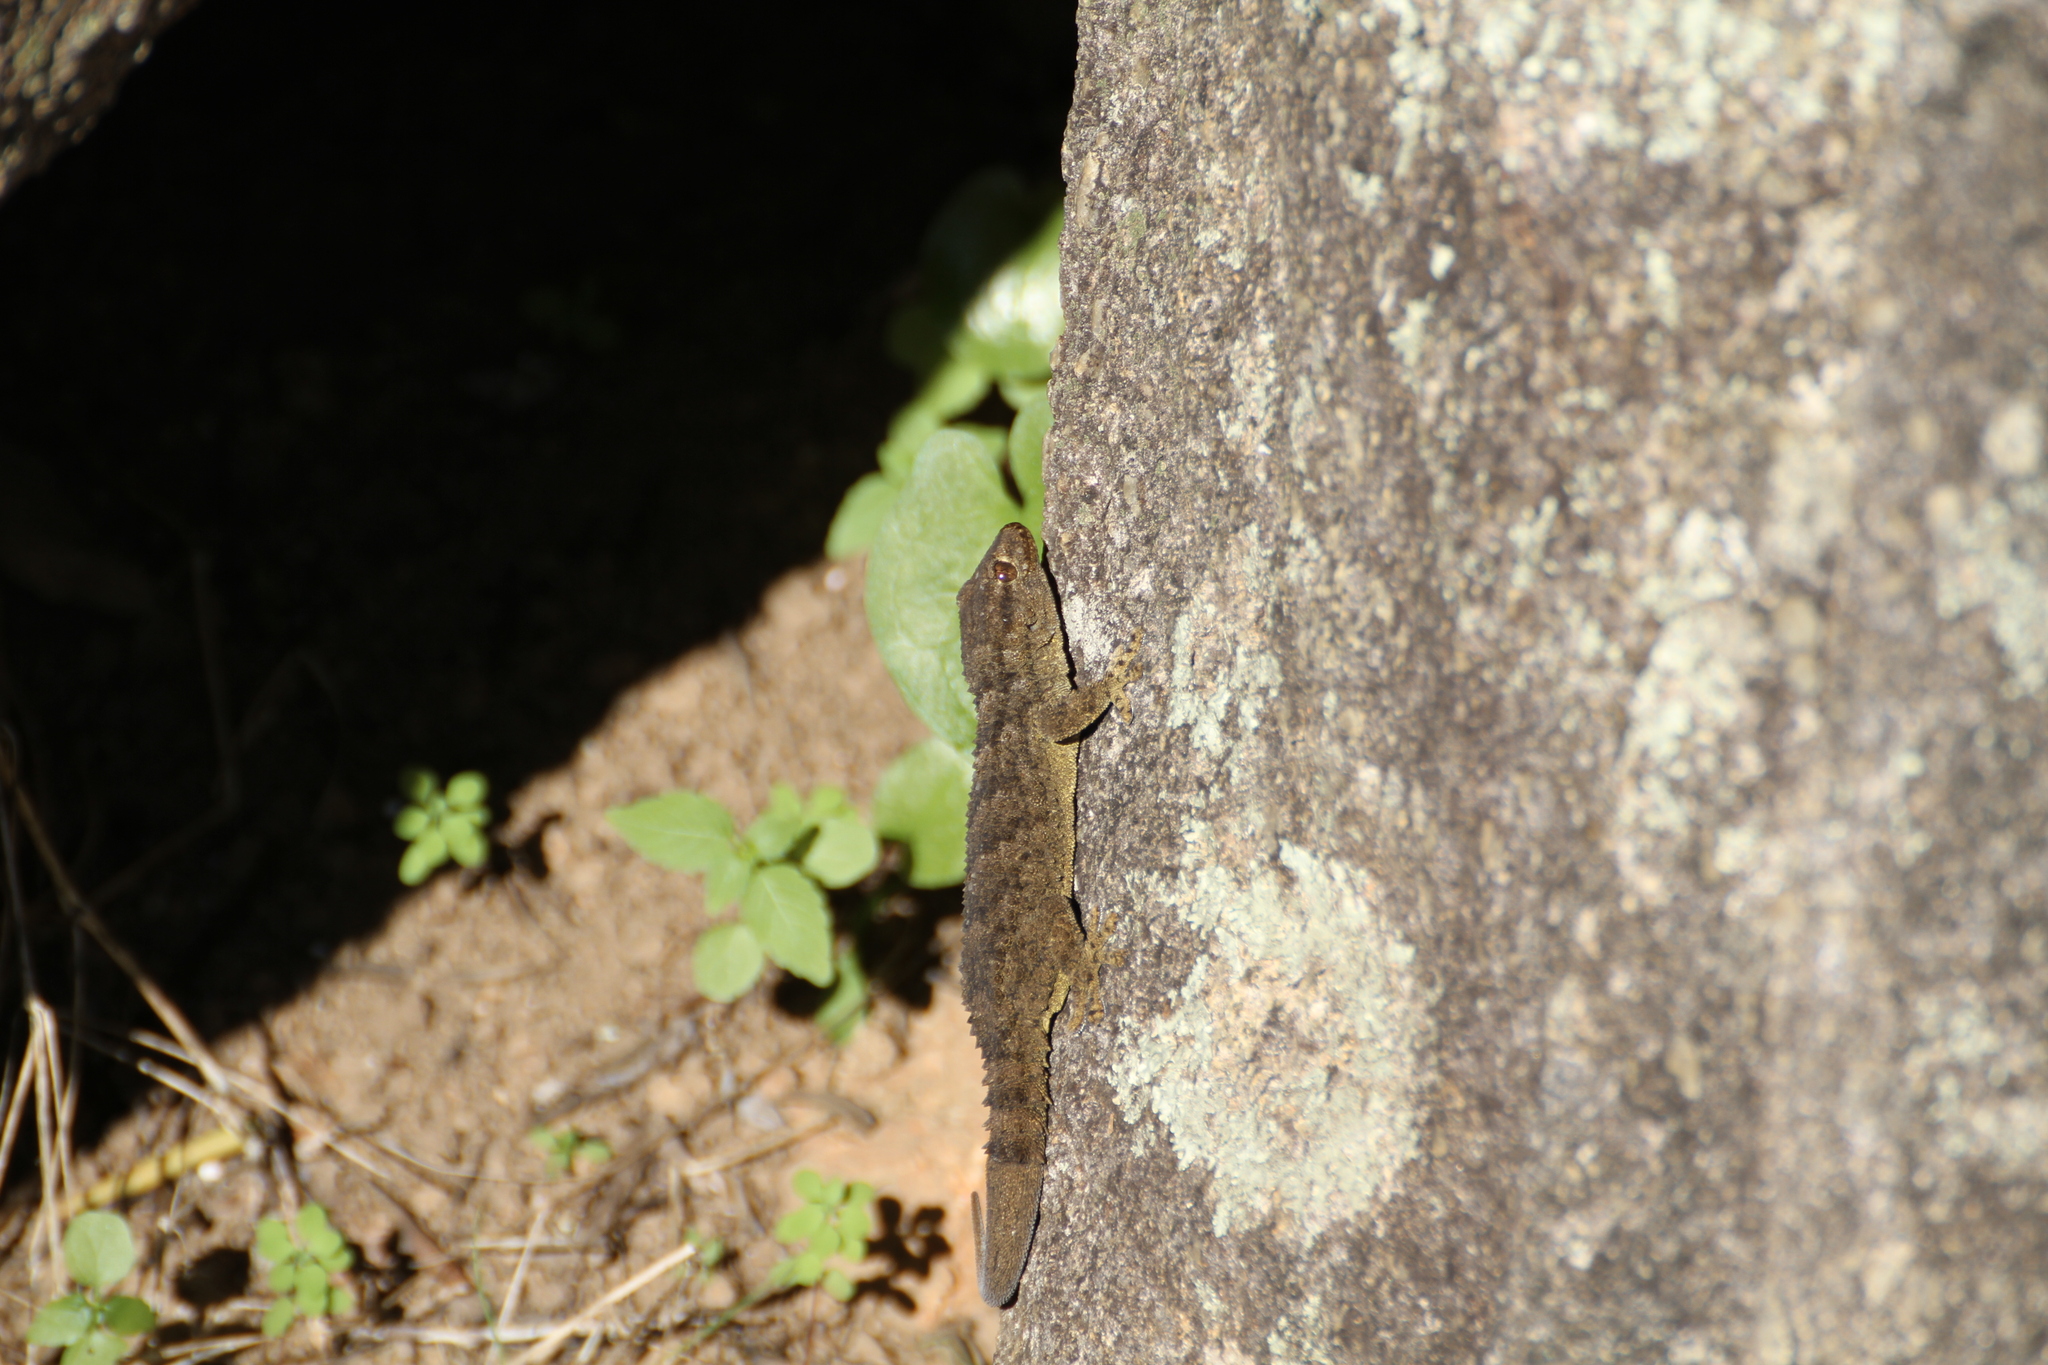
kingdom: Animalia
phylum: Chordata
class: Squamata
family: Phyllodactylidae
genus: Tarentola
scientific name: Tarentola mauritanica
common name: Moorish gecko
